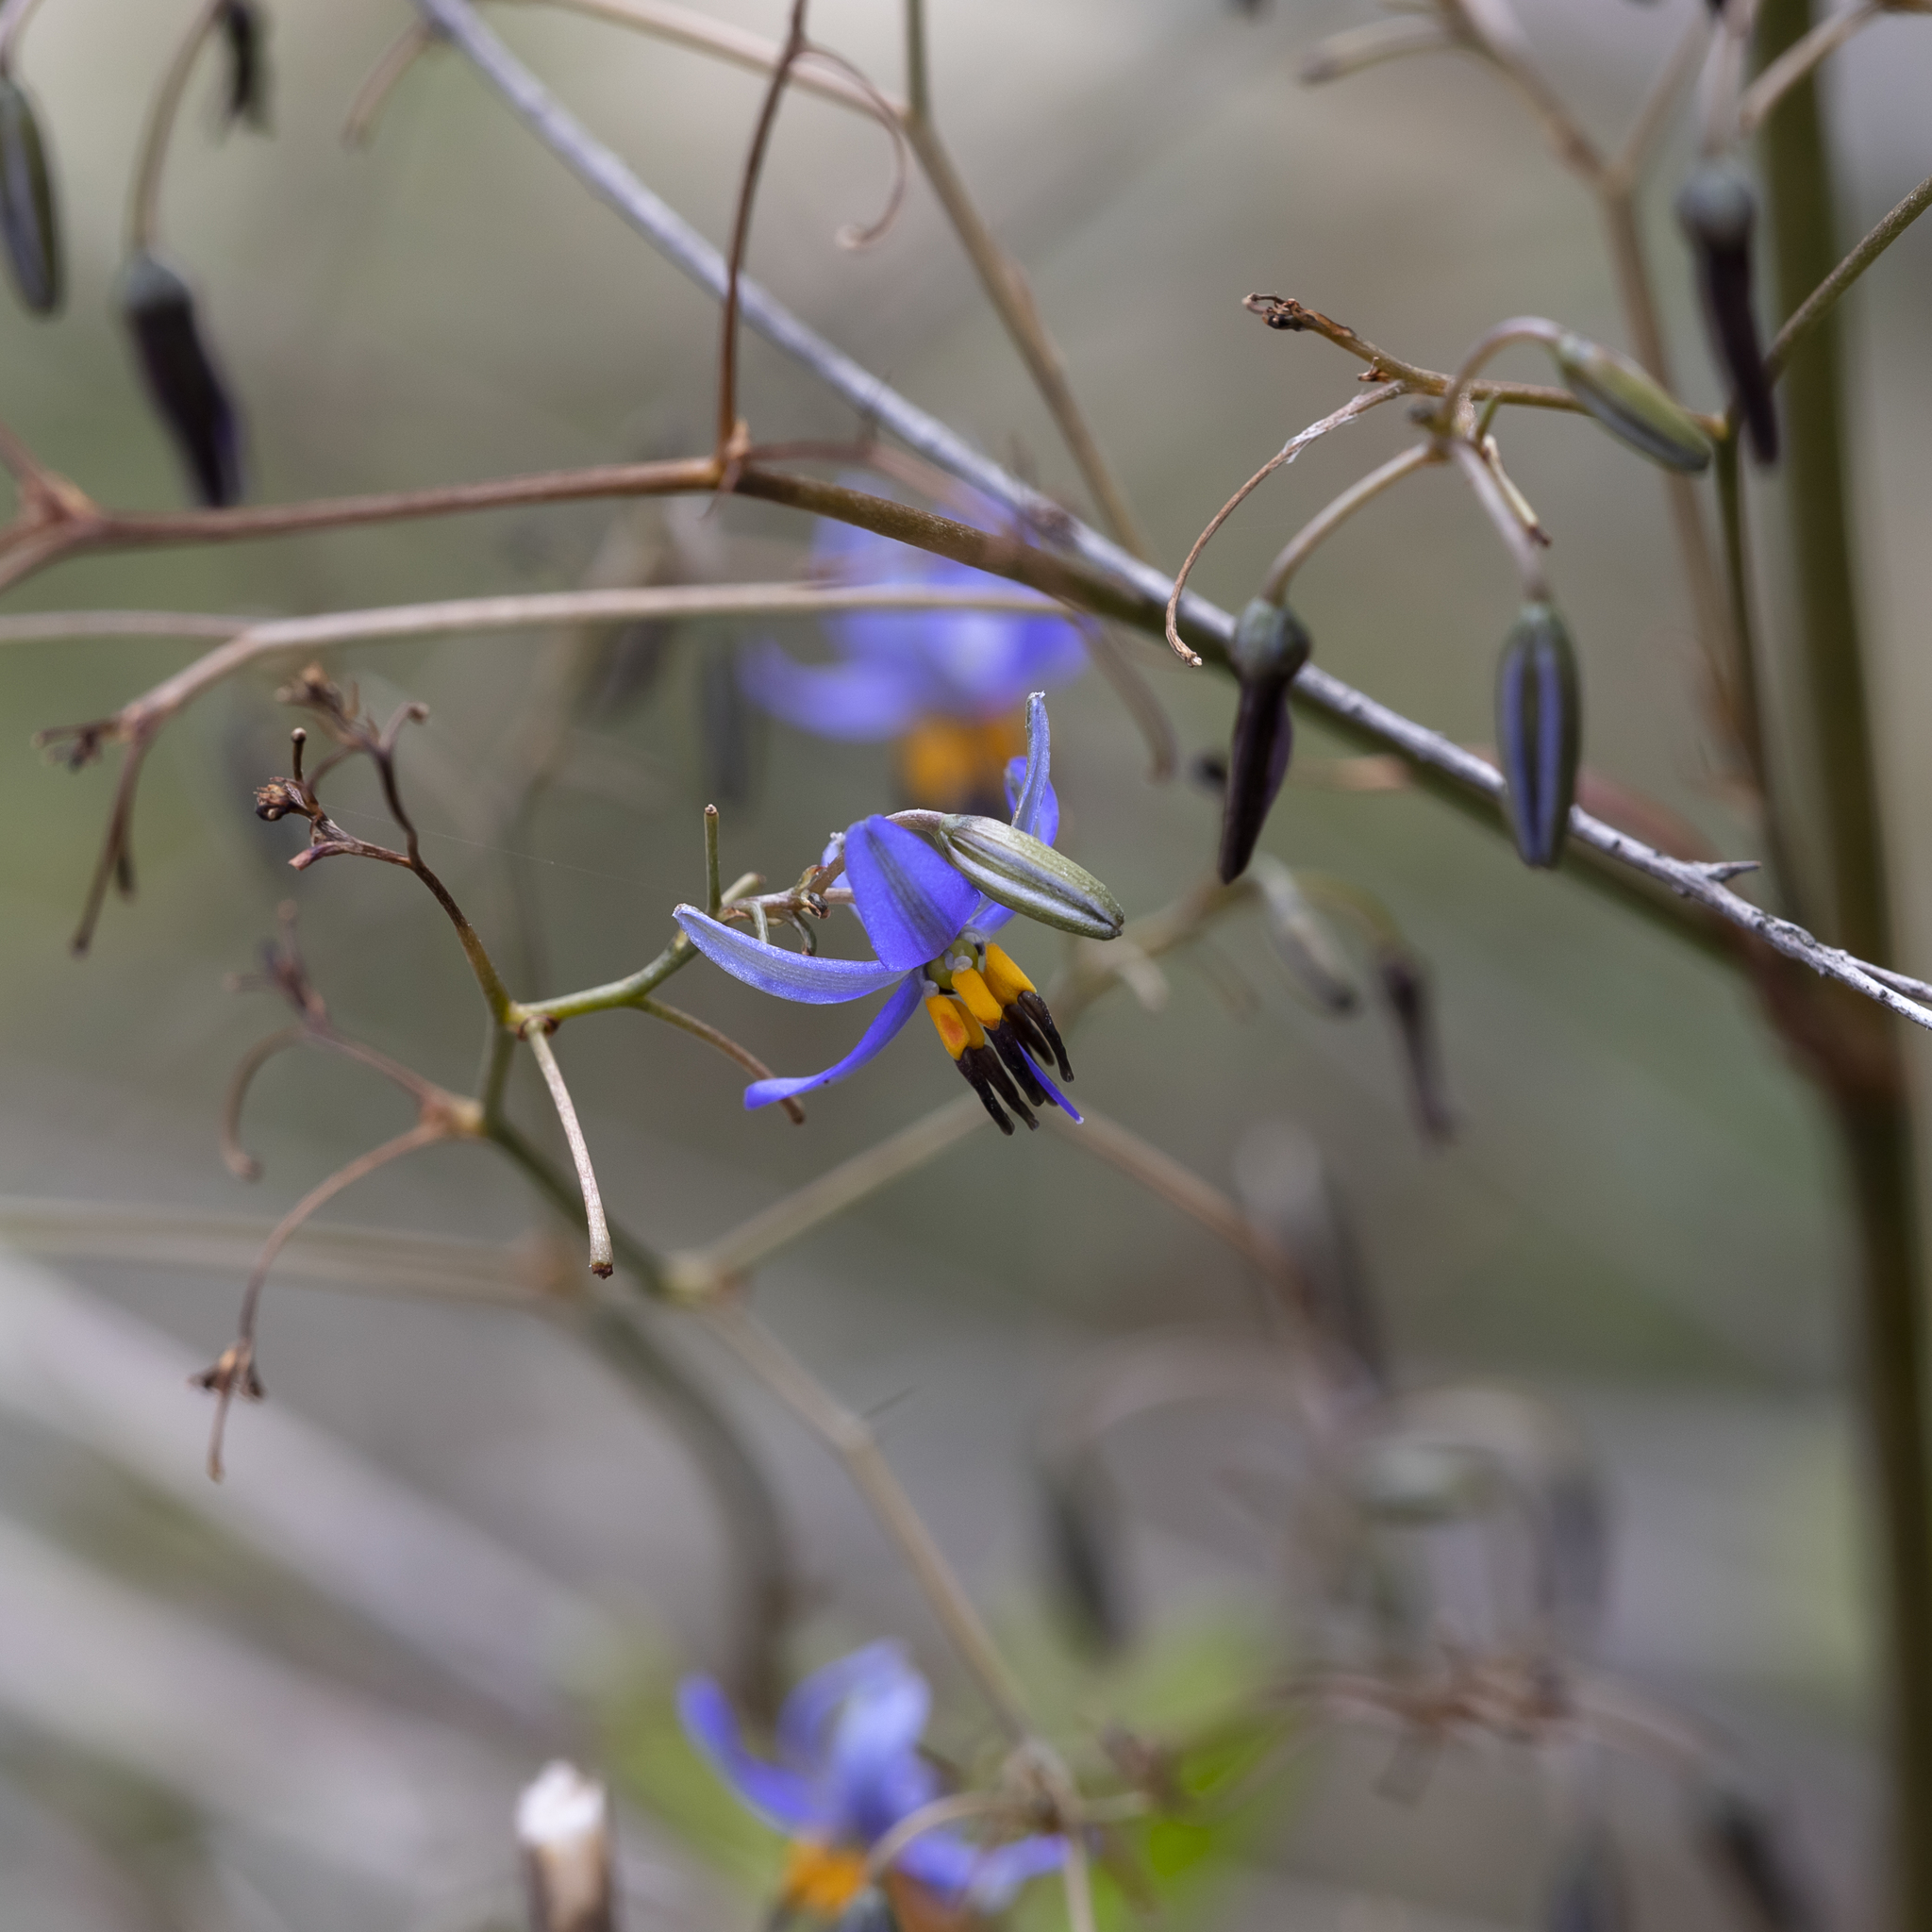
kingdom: Plantae
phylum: Tracheophyta
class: Liliopsida
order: Asparagales
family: Asphodelaceae
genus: Dianella
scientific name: Dianella revoluta
